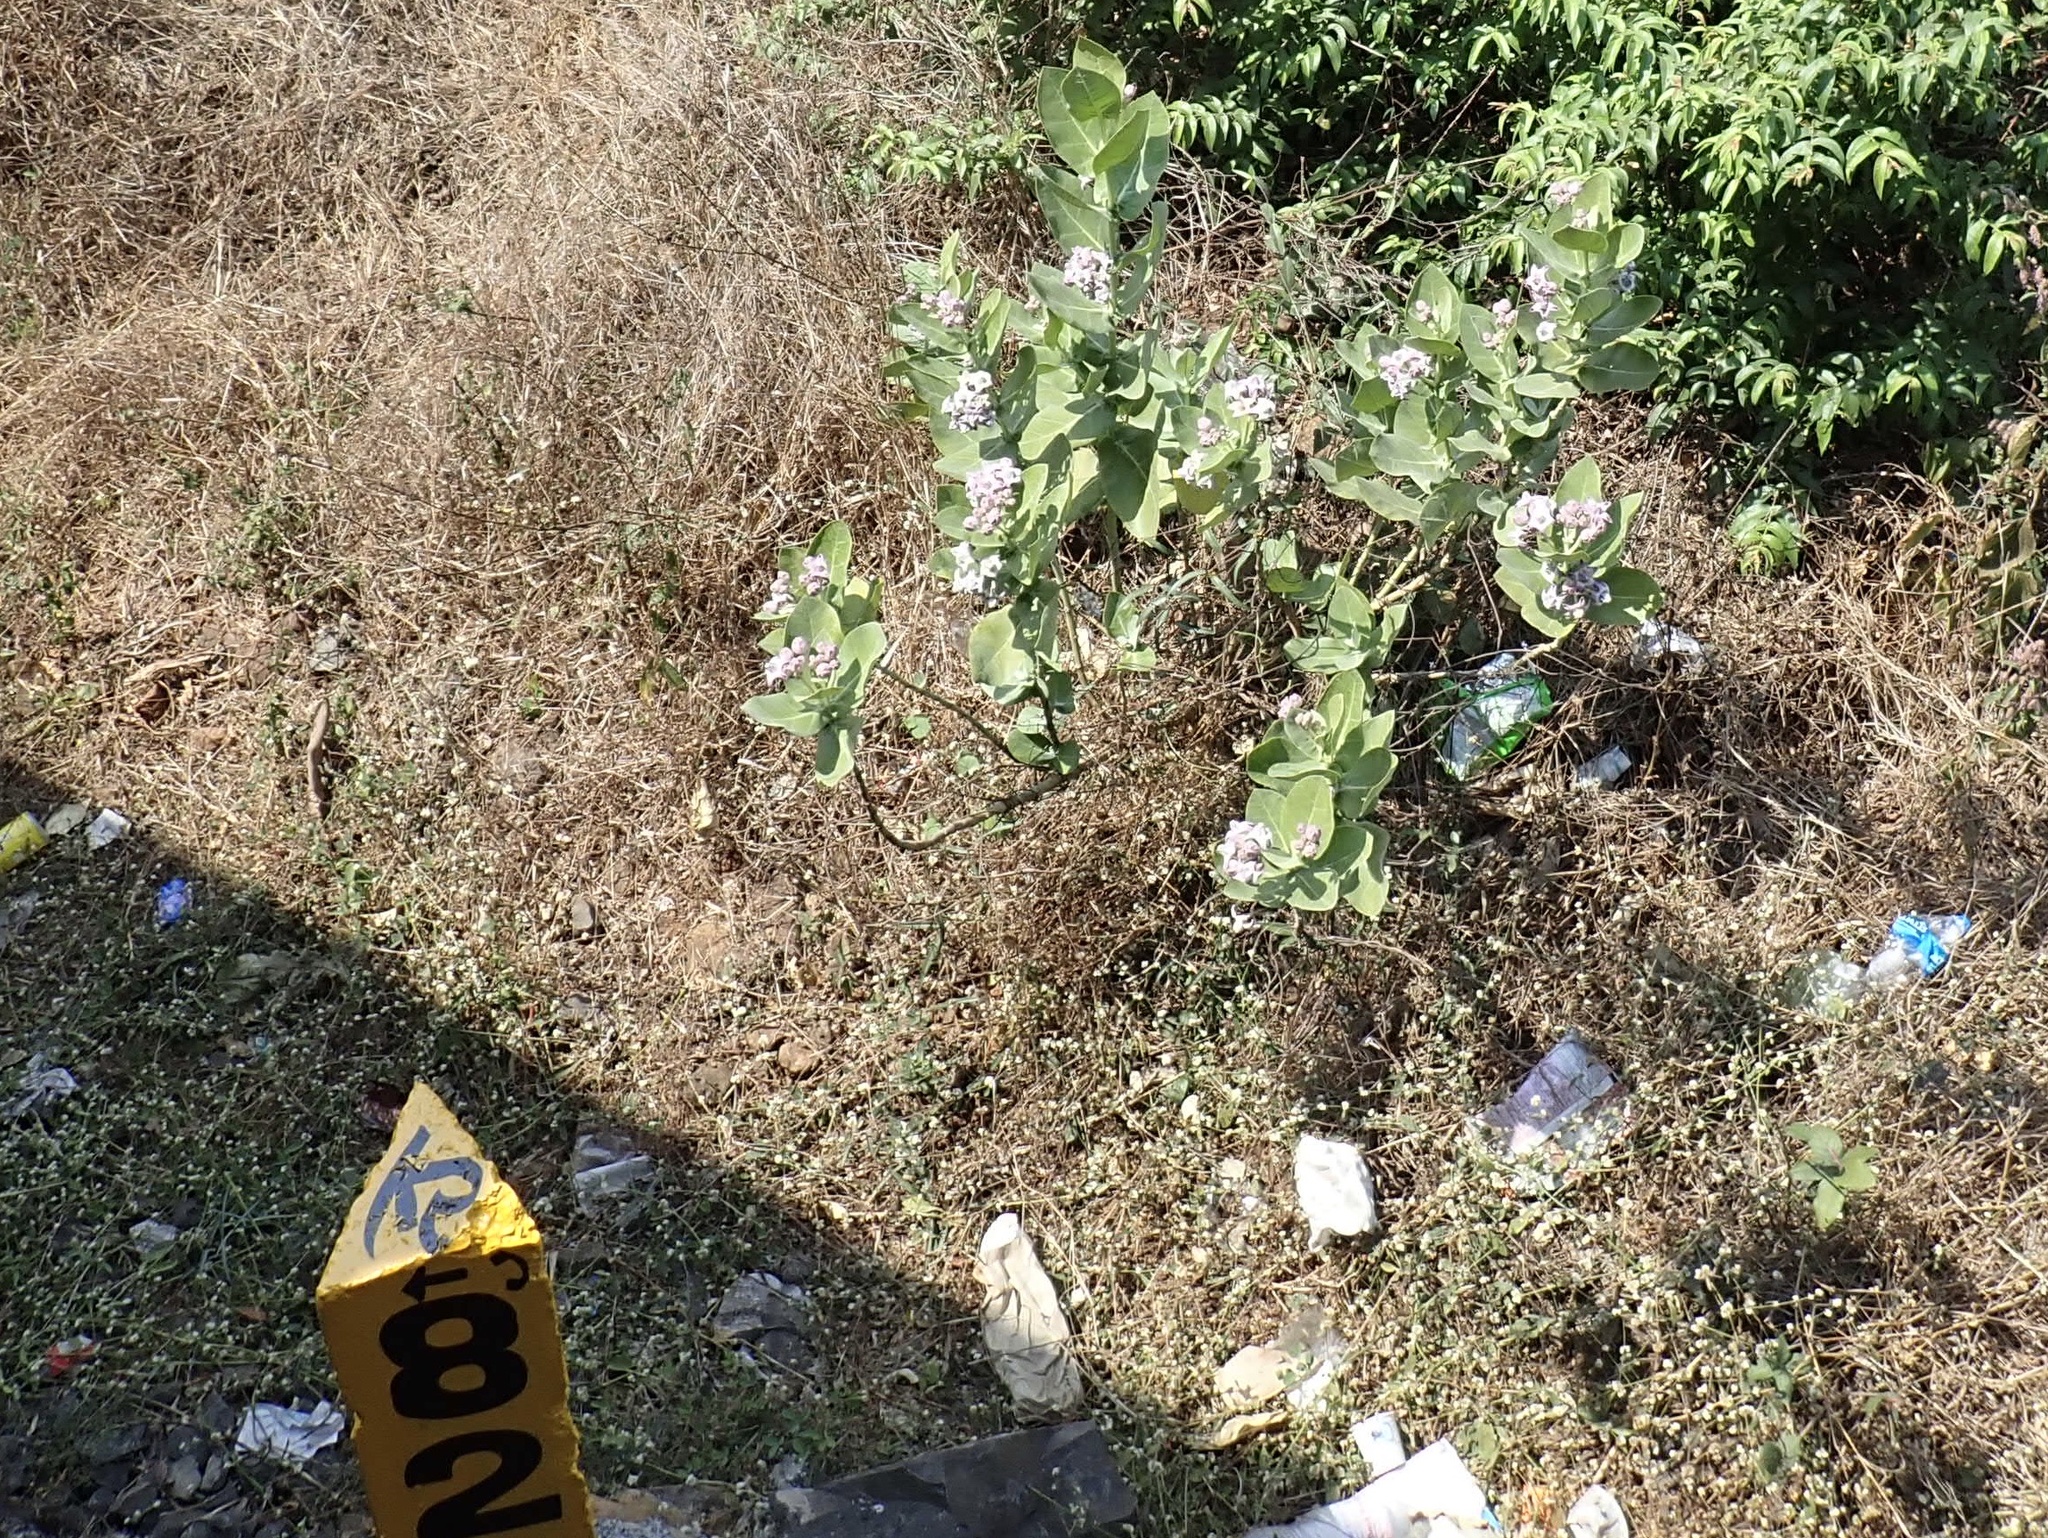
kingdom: Plantae
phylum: Tracheophyta
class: Magnoliopsida
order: Gentianales
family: Apocynaceae
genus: Calotropis
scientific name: Calotropis gigantea
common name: Crown flower
